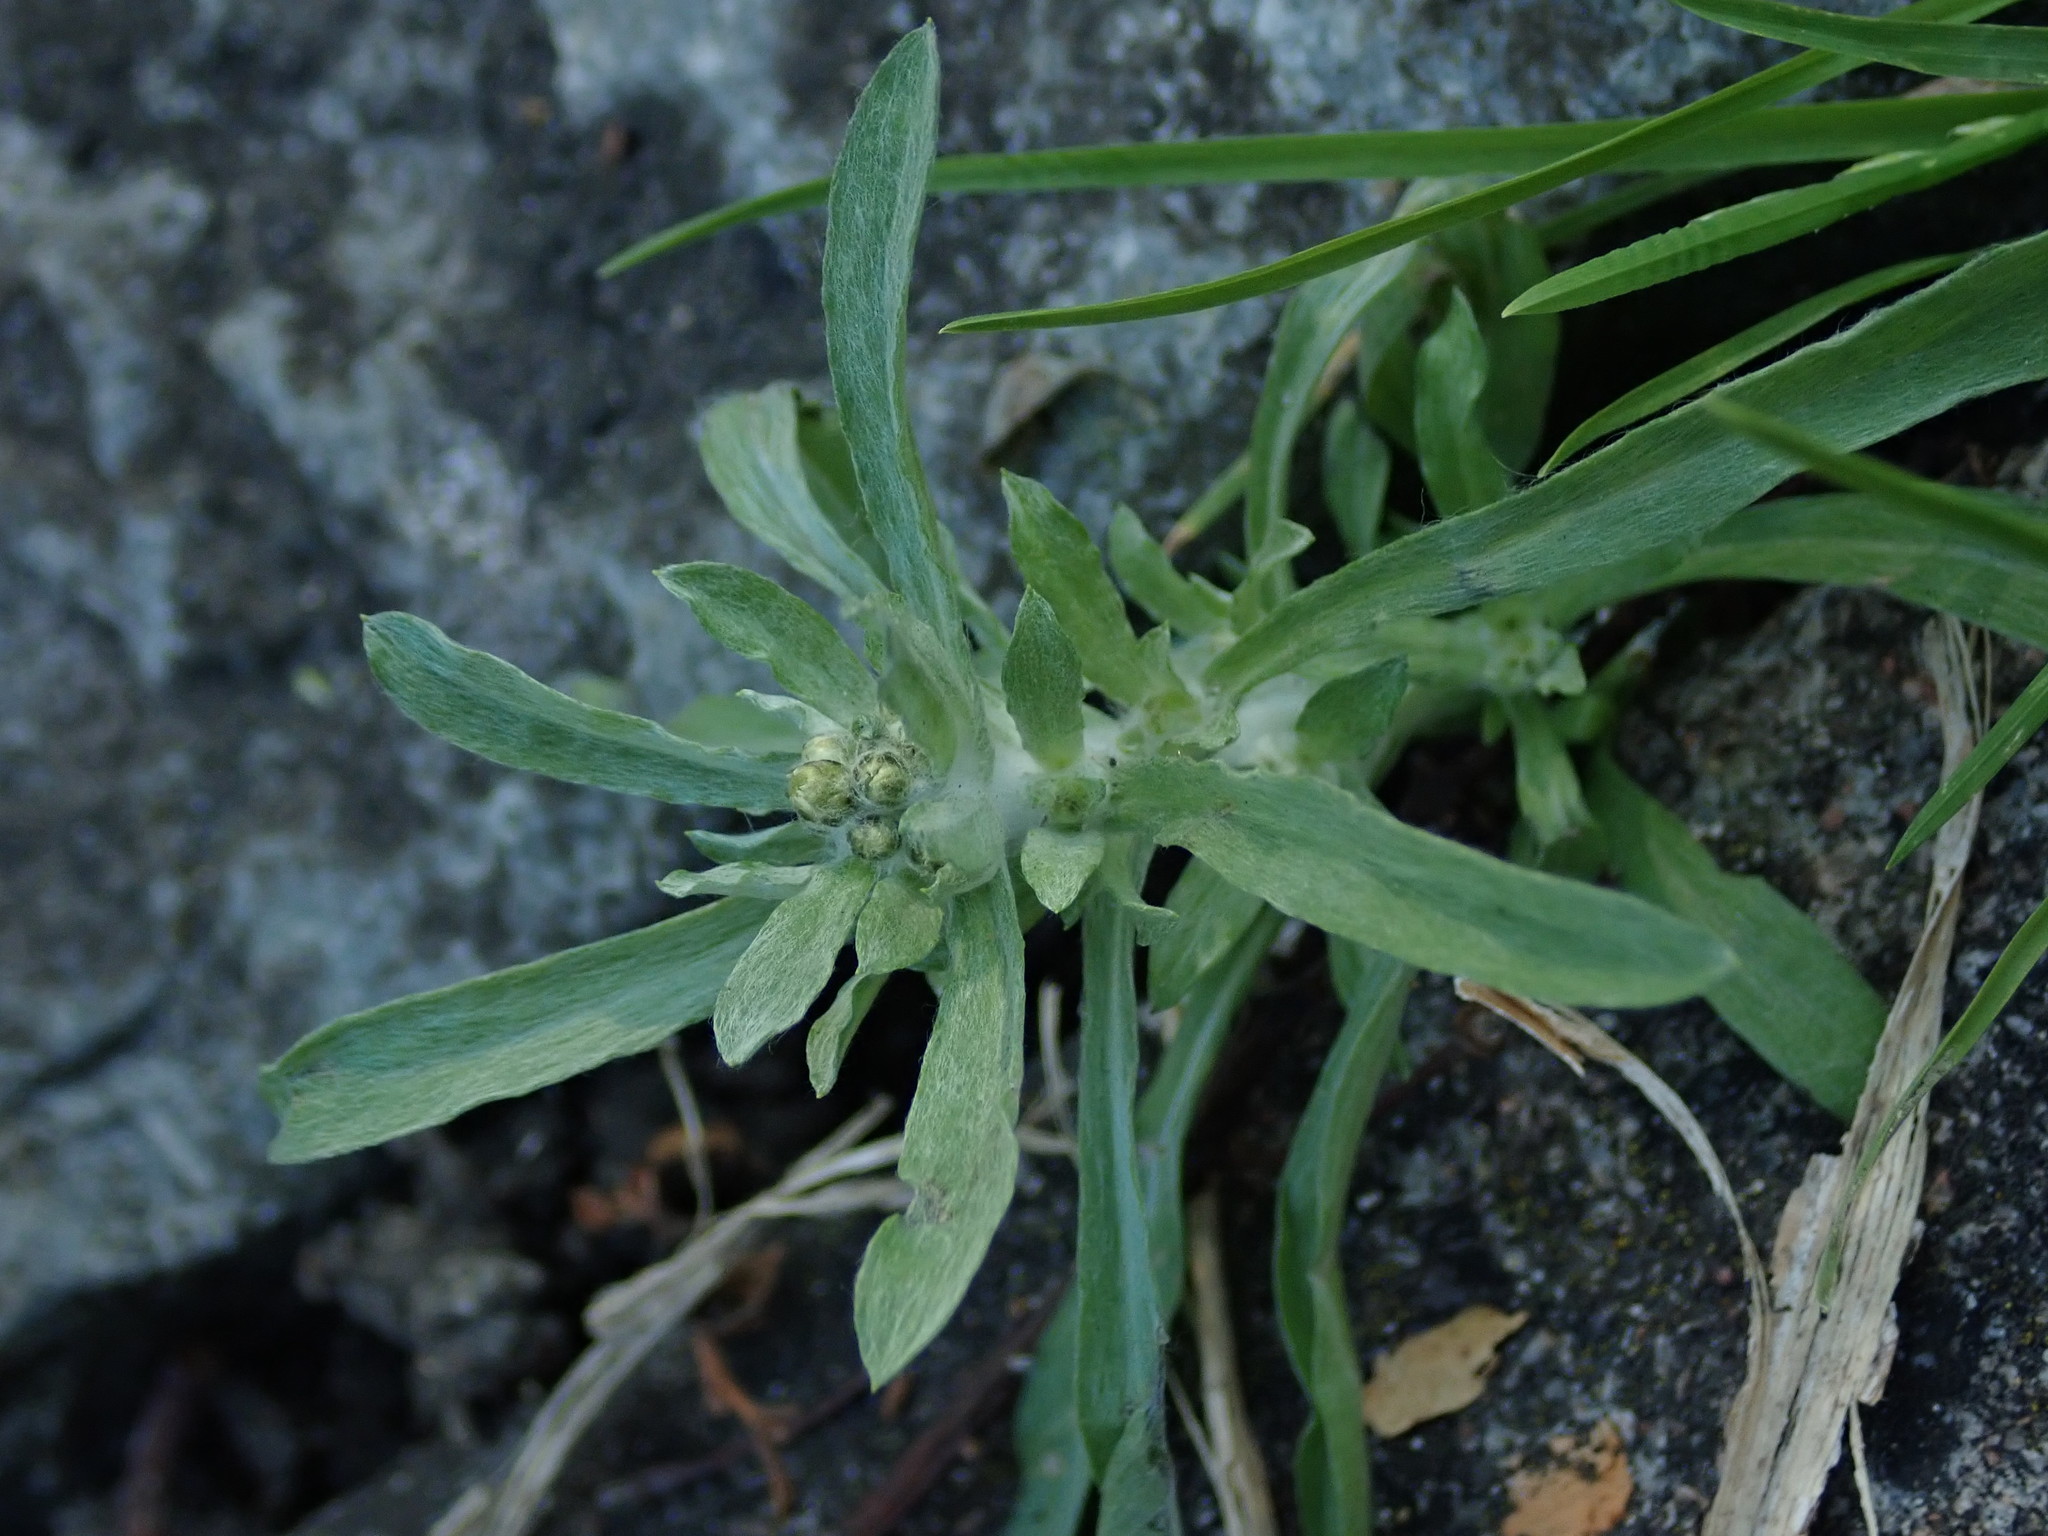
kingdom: Plantae
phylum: Tracheophyta
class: Magnoliopsida
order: Asterales
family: Asteraceae
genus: Gnaphalium
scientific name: Gnaphalium uliginosum
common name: Marsh cudweed
